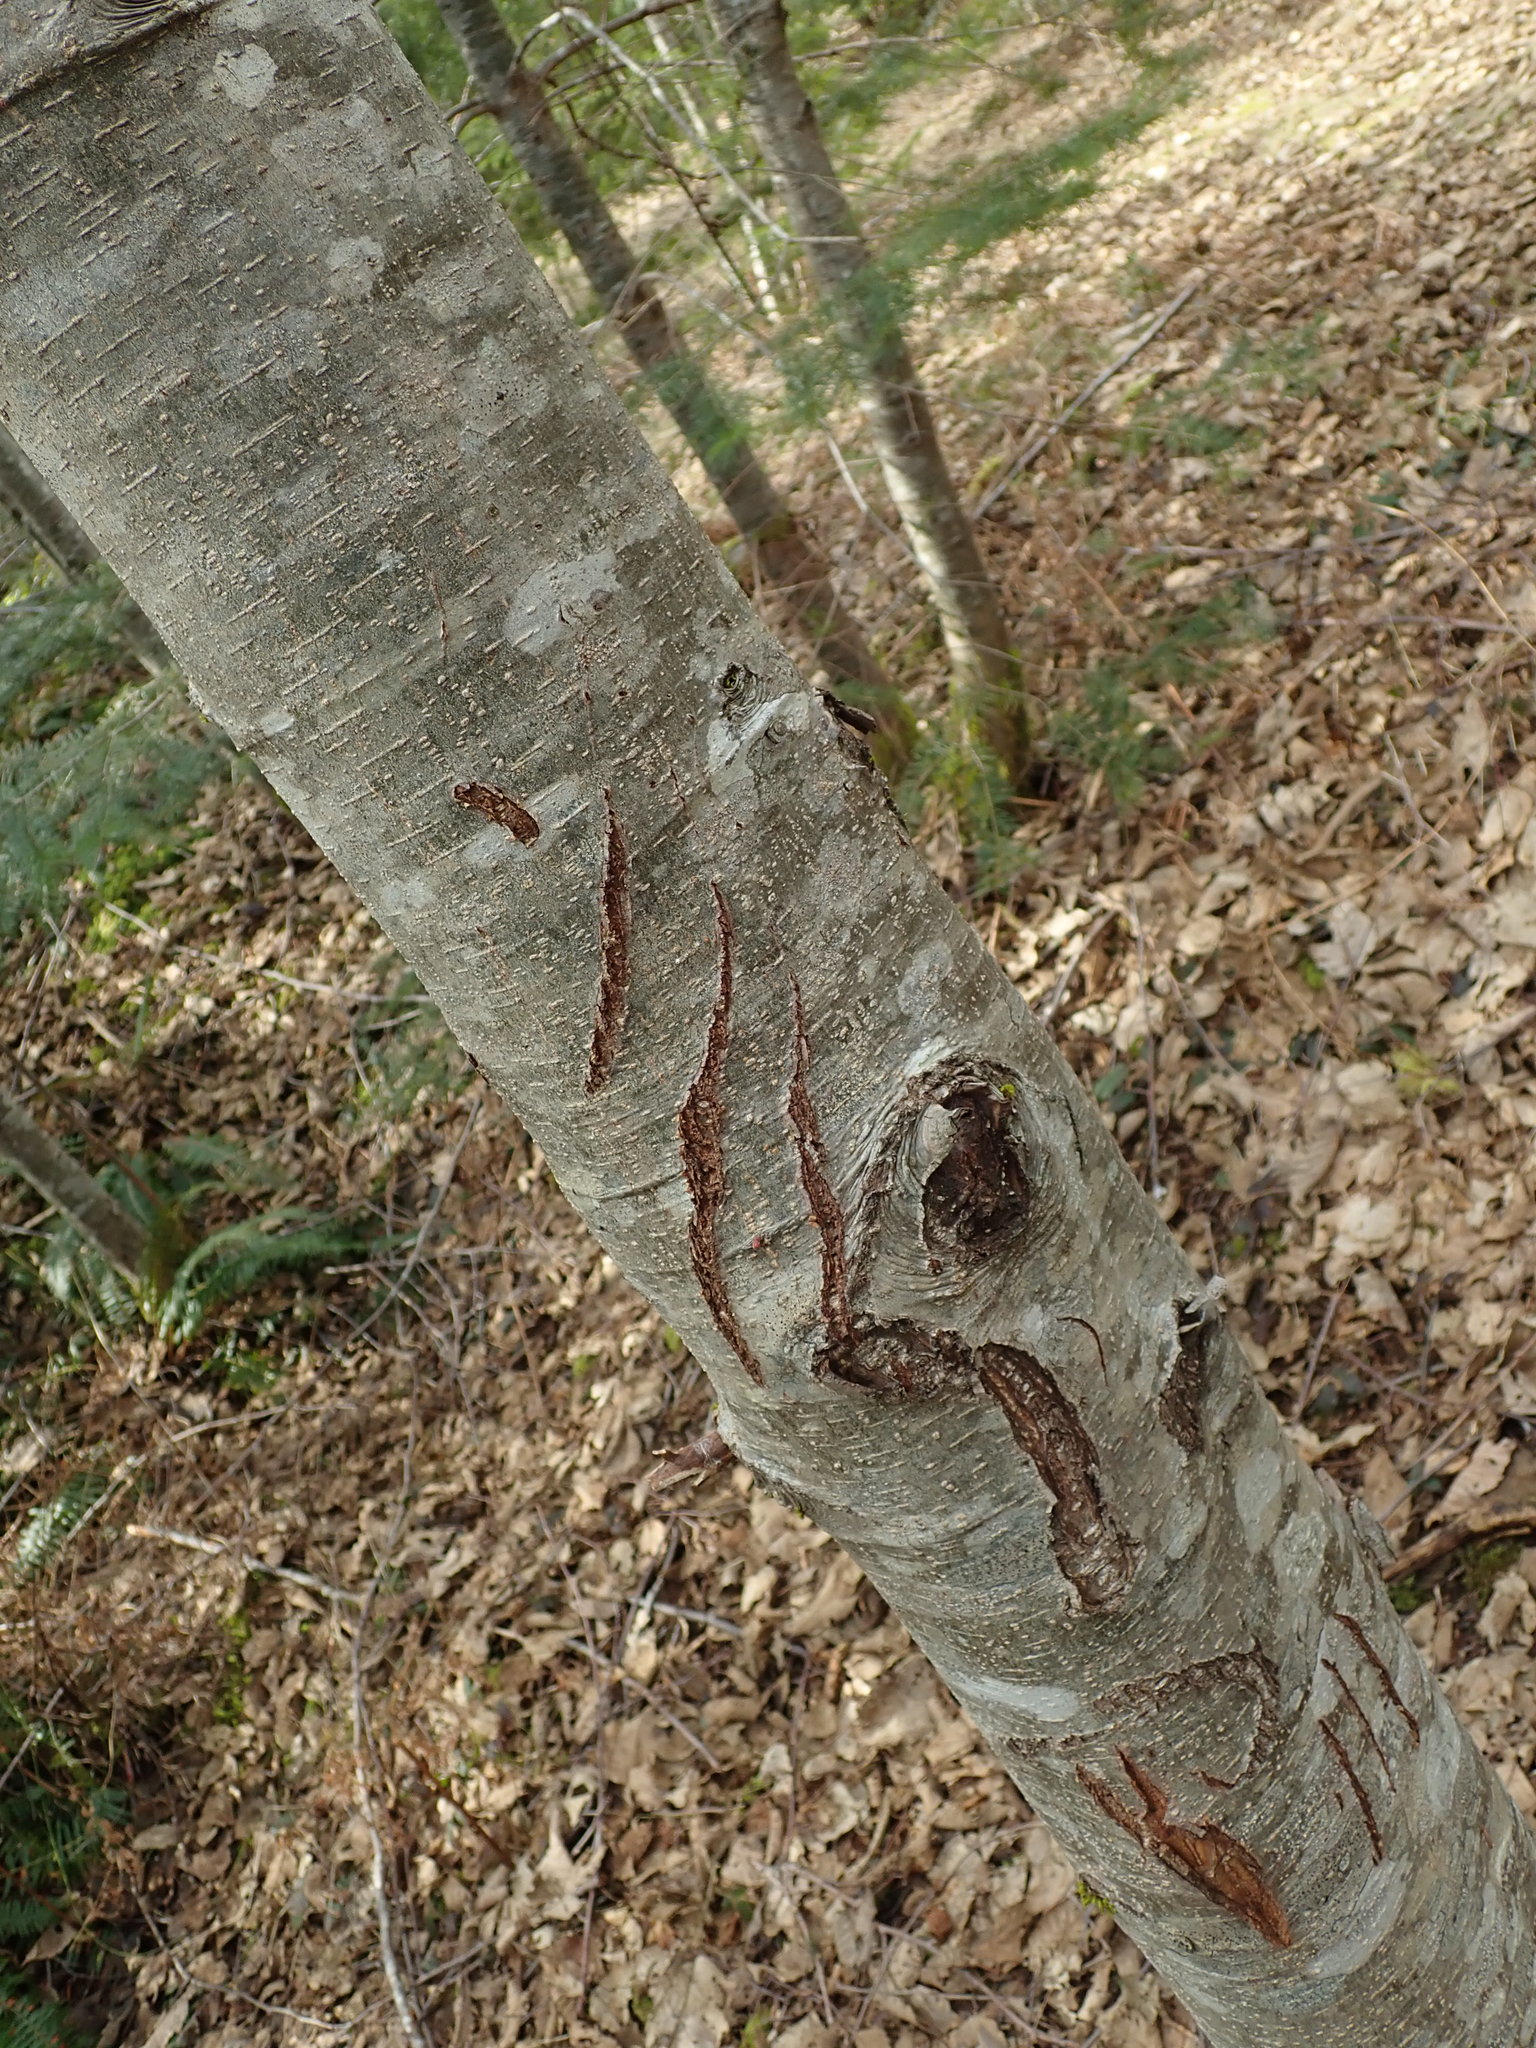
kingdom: Animalia
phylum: Chordata
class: Mammalia
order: Carnivora
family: Ursidae
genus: Ursus
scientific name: Ursus americanus
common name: American black bear
